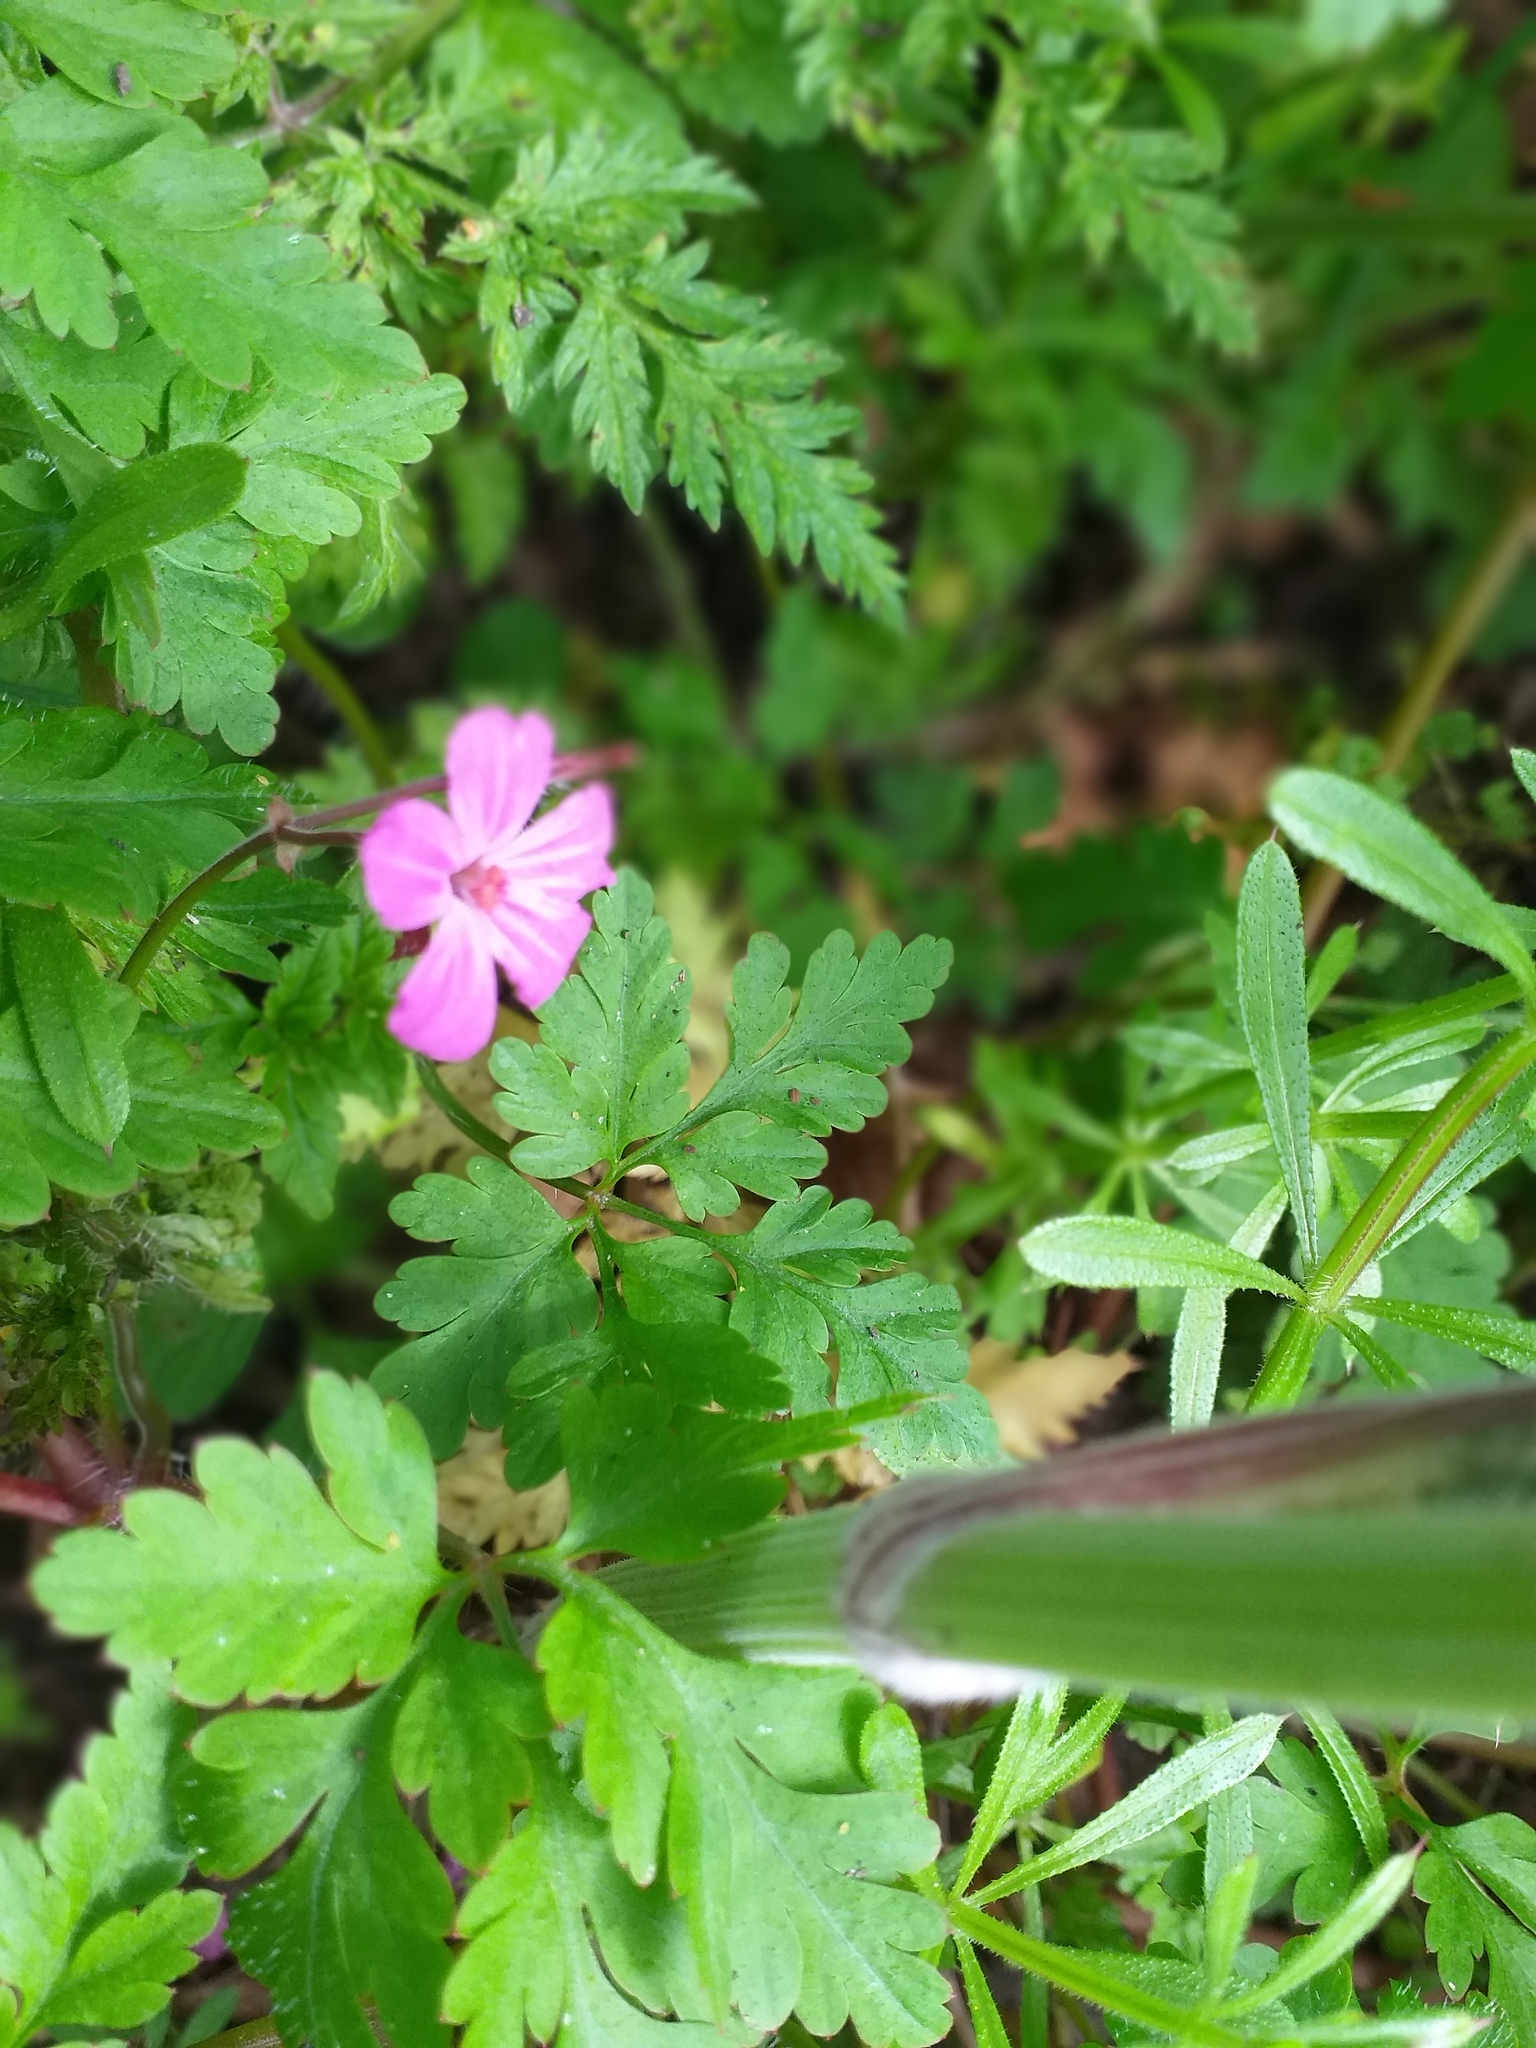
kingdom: Plantae
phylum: Tracheophyta
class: Magnoliopsida
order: Geraniales
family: Geraniaceae
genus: Geranium
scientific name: Geranium robertianum
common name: Herb-robert
